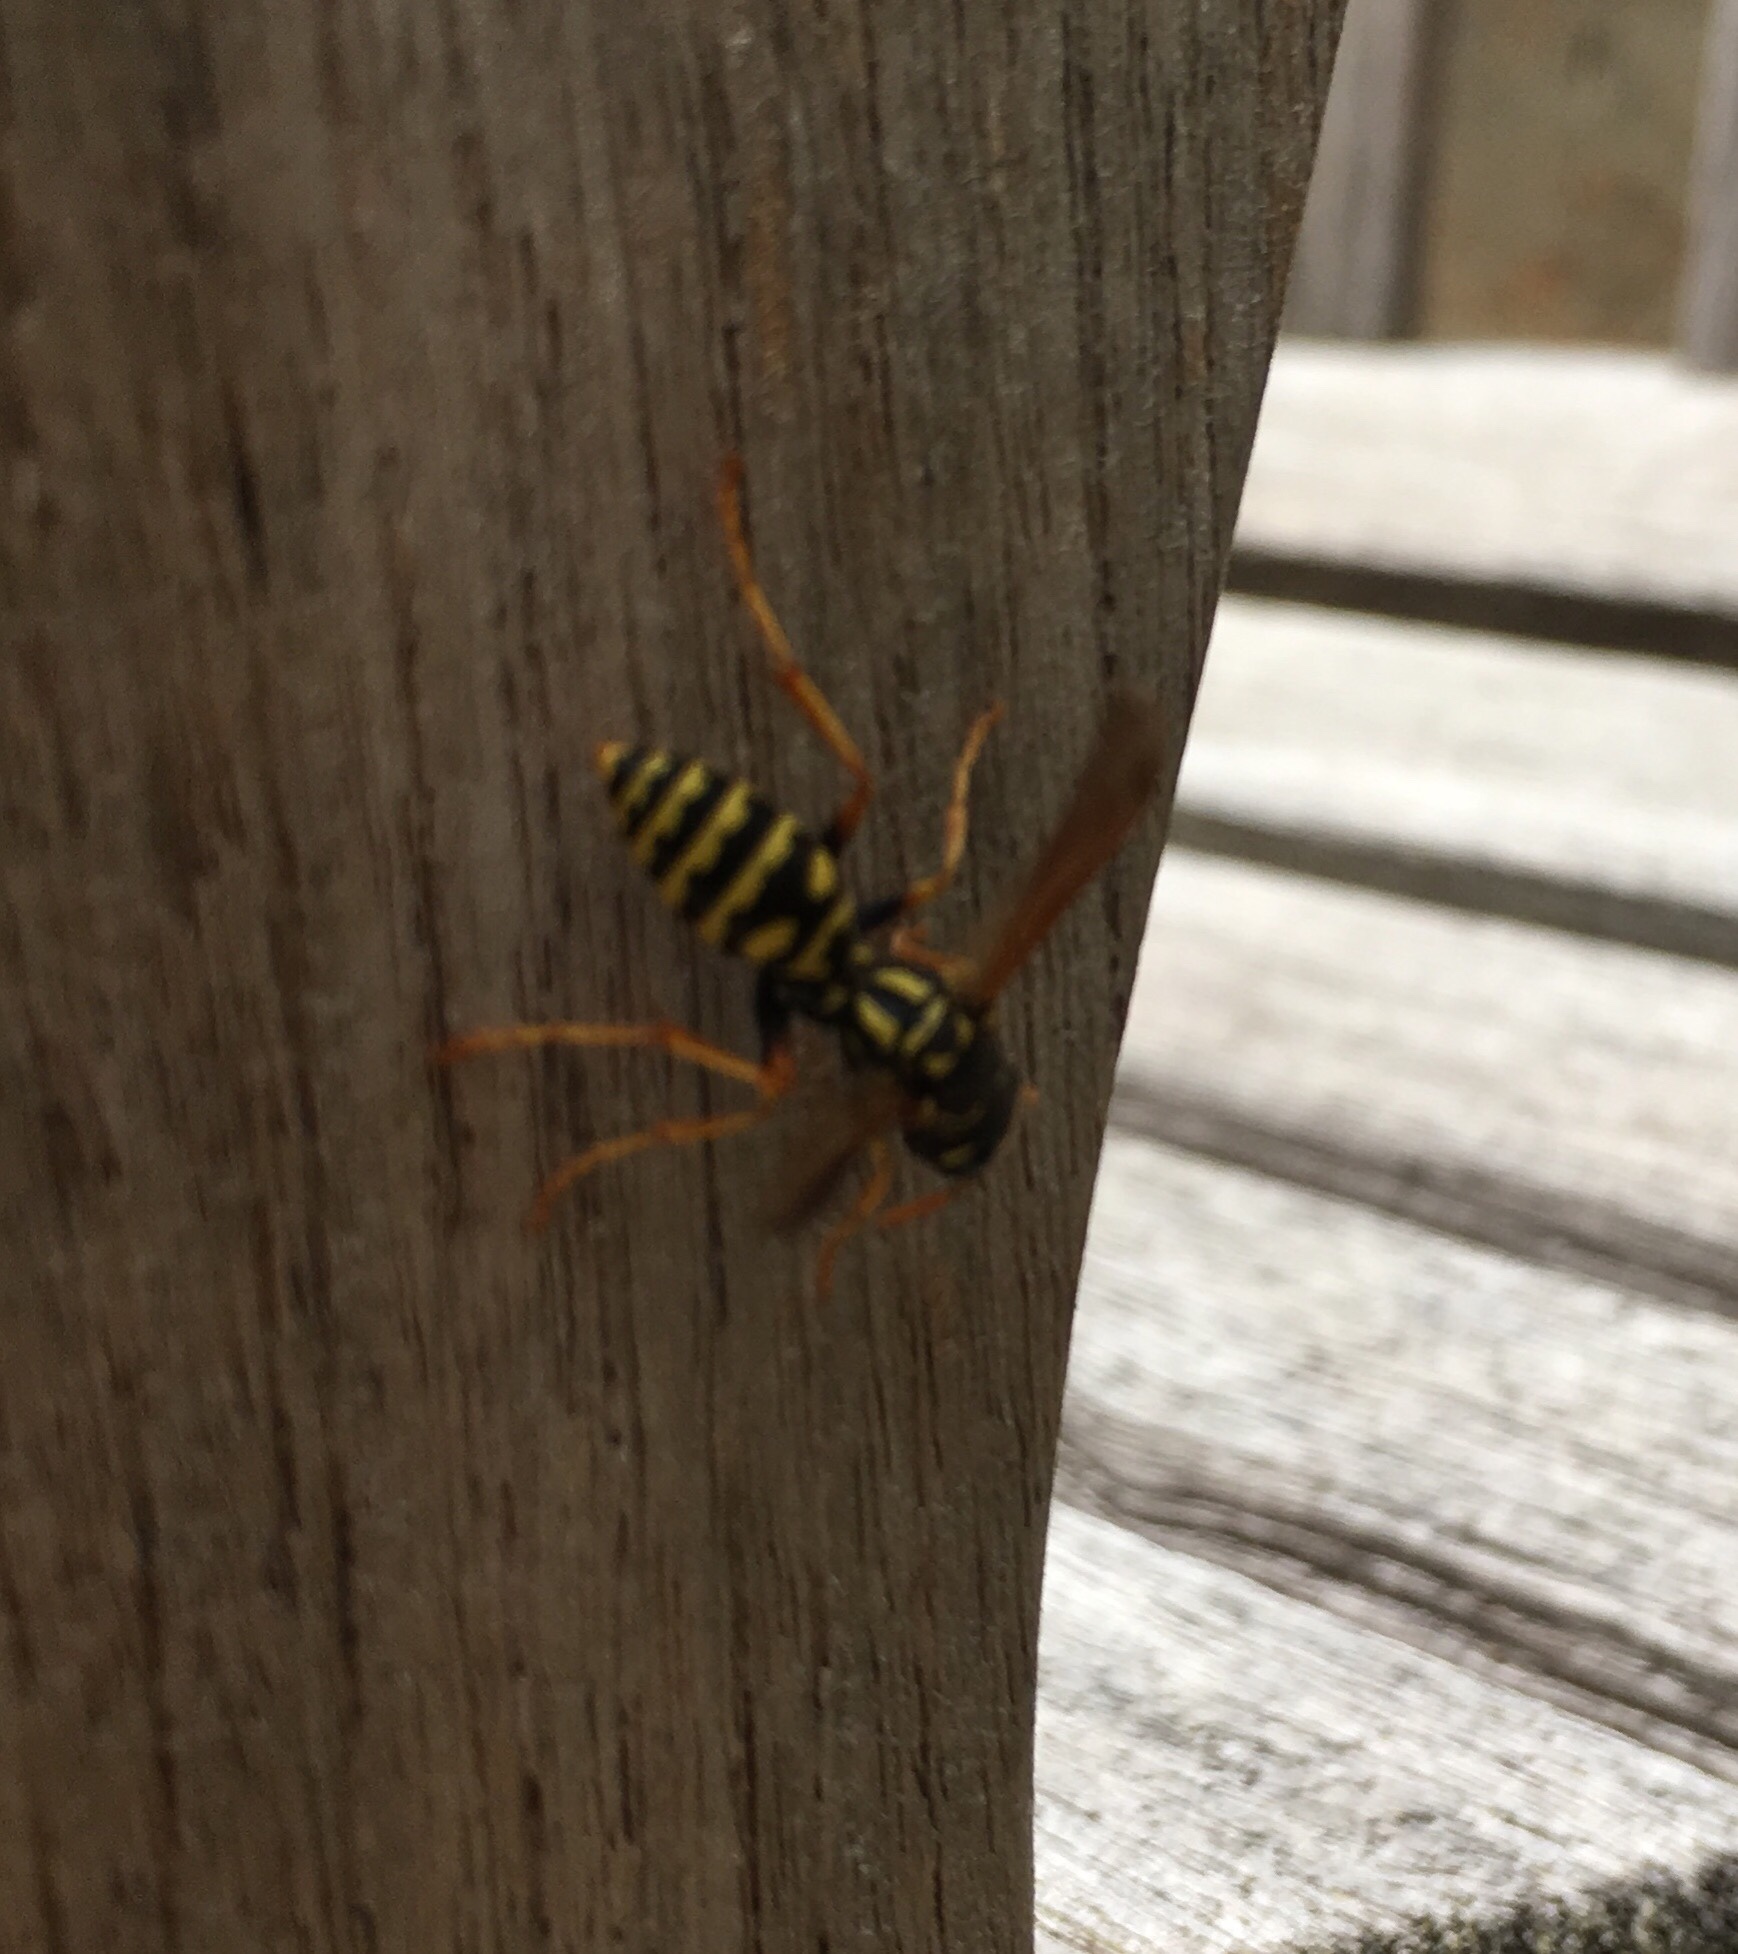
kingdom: Animalia
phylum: Arthropoda
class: Insecta
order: Hymenoptera
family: Eumenidae
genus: Polistes
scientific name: Polistes dominula
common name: Paper wasp
